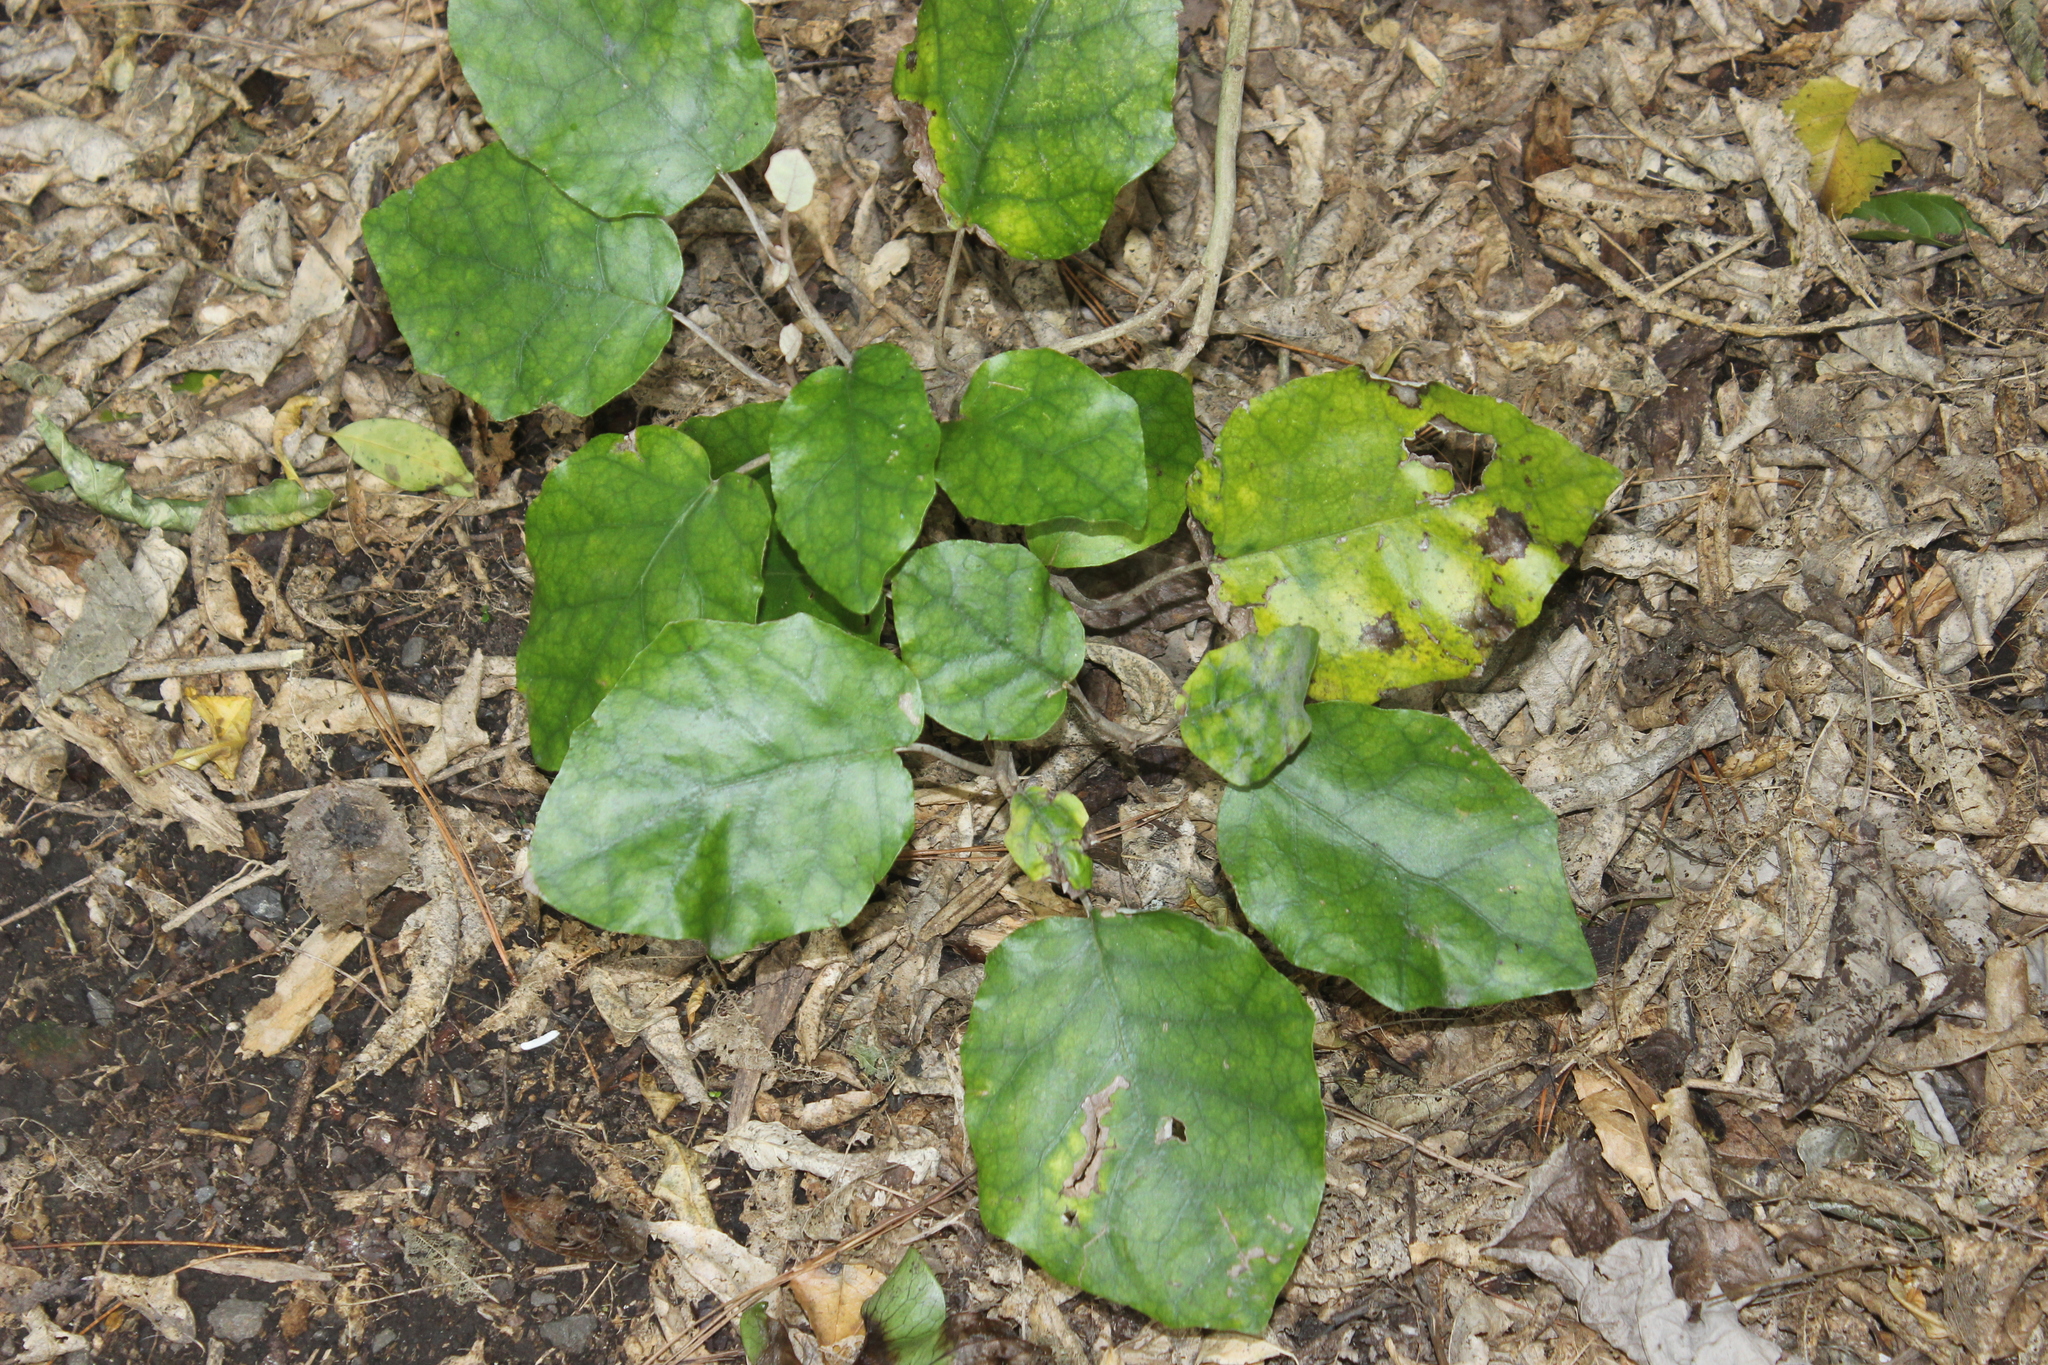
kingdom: Plantae
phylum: Tracheophyta
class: Magnoliopsida
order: Asterales
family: Asteraceae
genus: Brachyglottis
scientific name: Brachyglottis repanda
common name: Hedge ragwort
